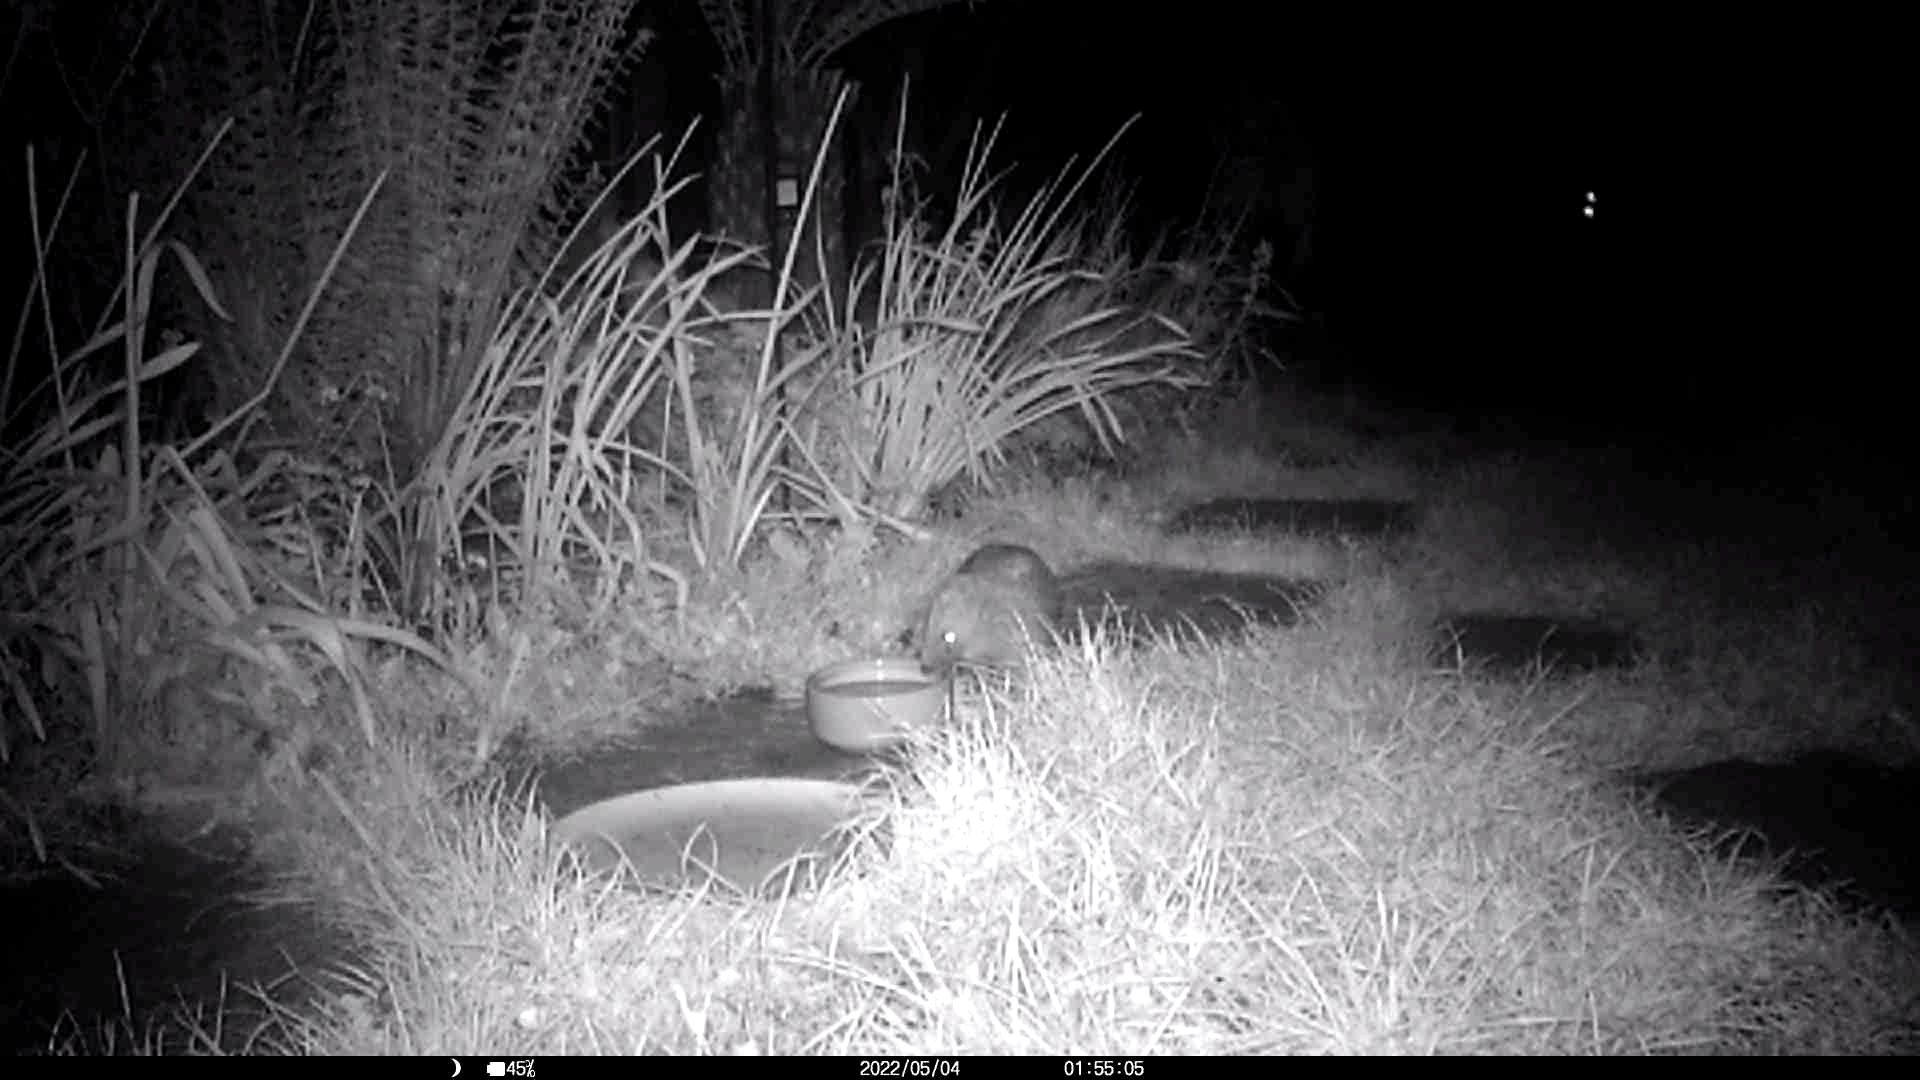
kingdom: Animalia
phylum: Chordata
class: Mammalia
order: Erinaceomorpha
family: Erinaceidae
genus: Erinaceus
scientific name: Erinaceus europaeus
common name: West european hedgehog
